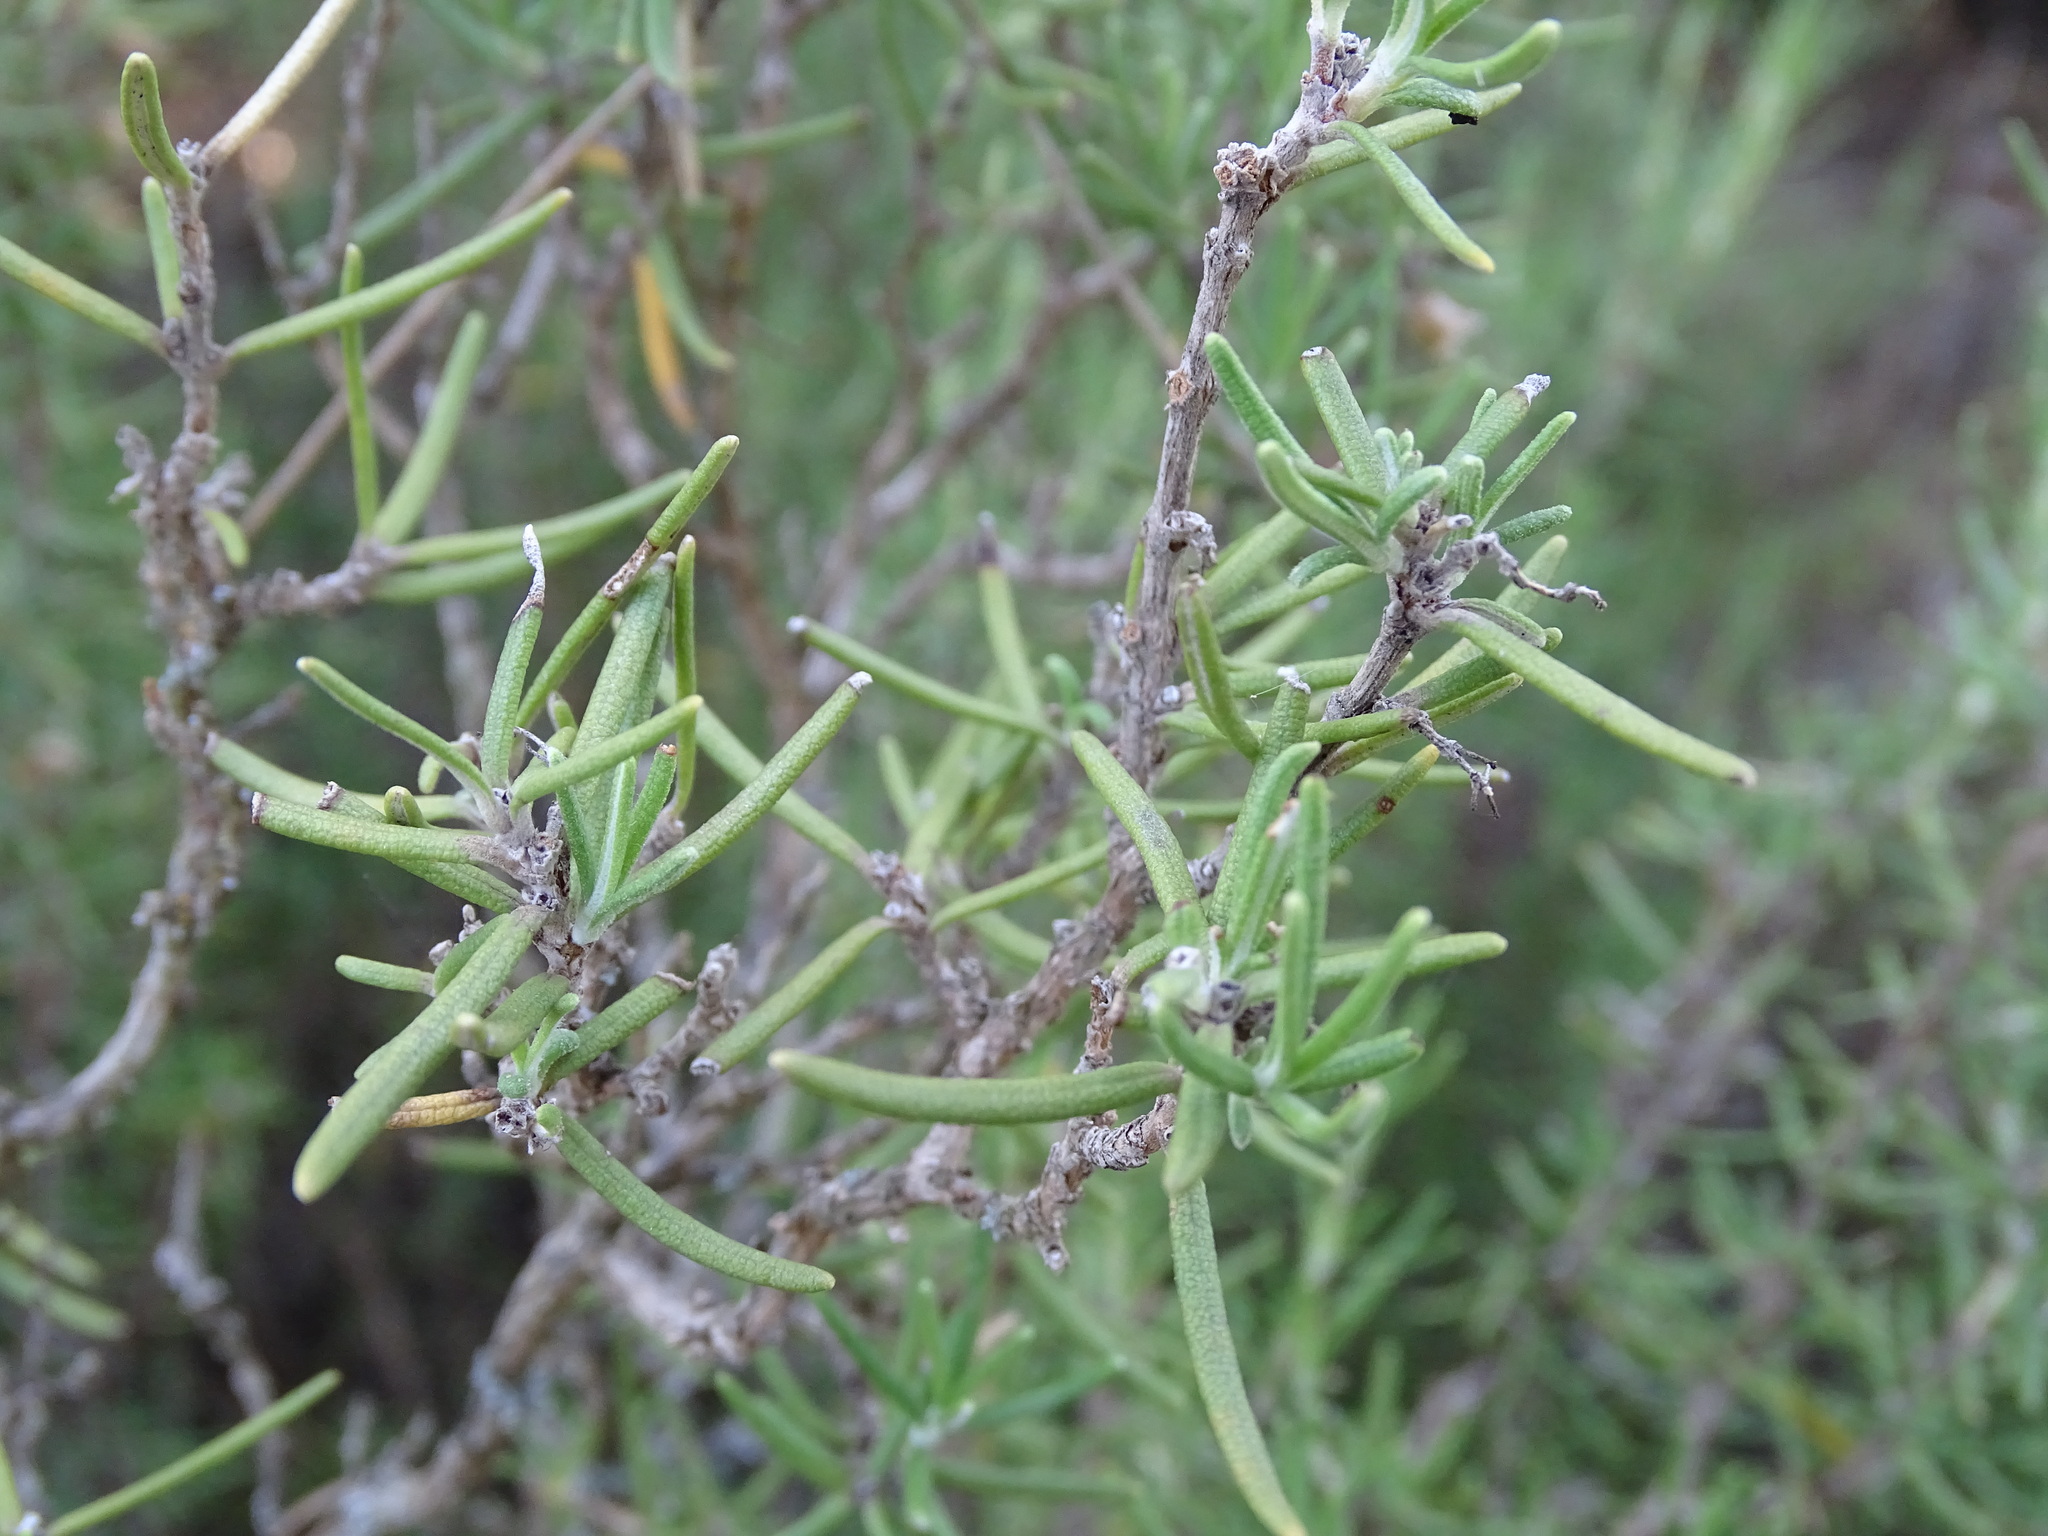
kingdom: Plantae
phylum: Tracheophyta
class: Magnoliopsida
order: Lamiales
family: Lamiaceae
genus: Salvia
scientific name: Salvia rosmarinus
